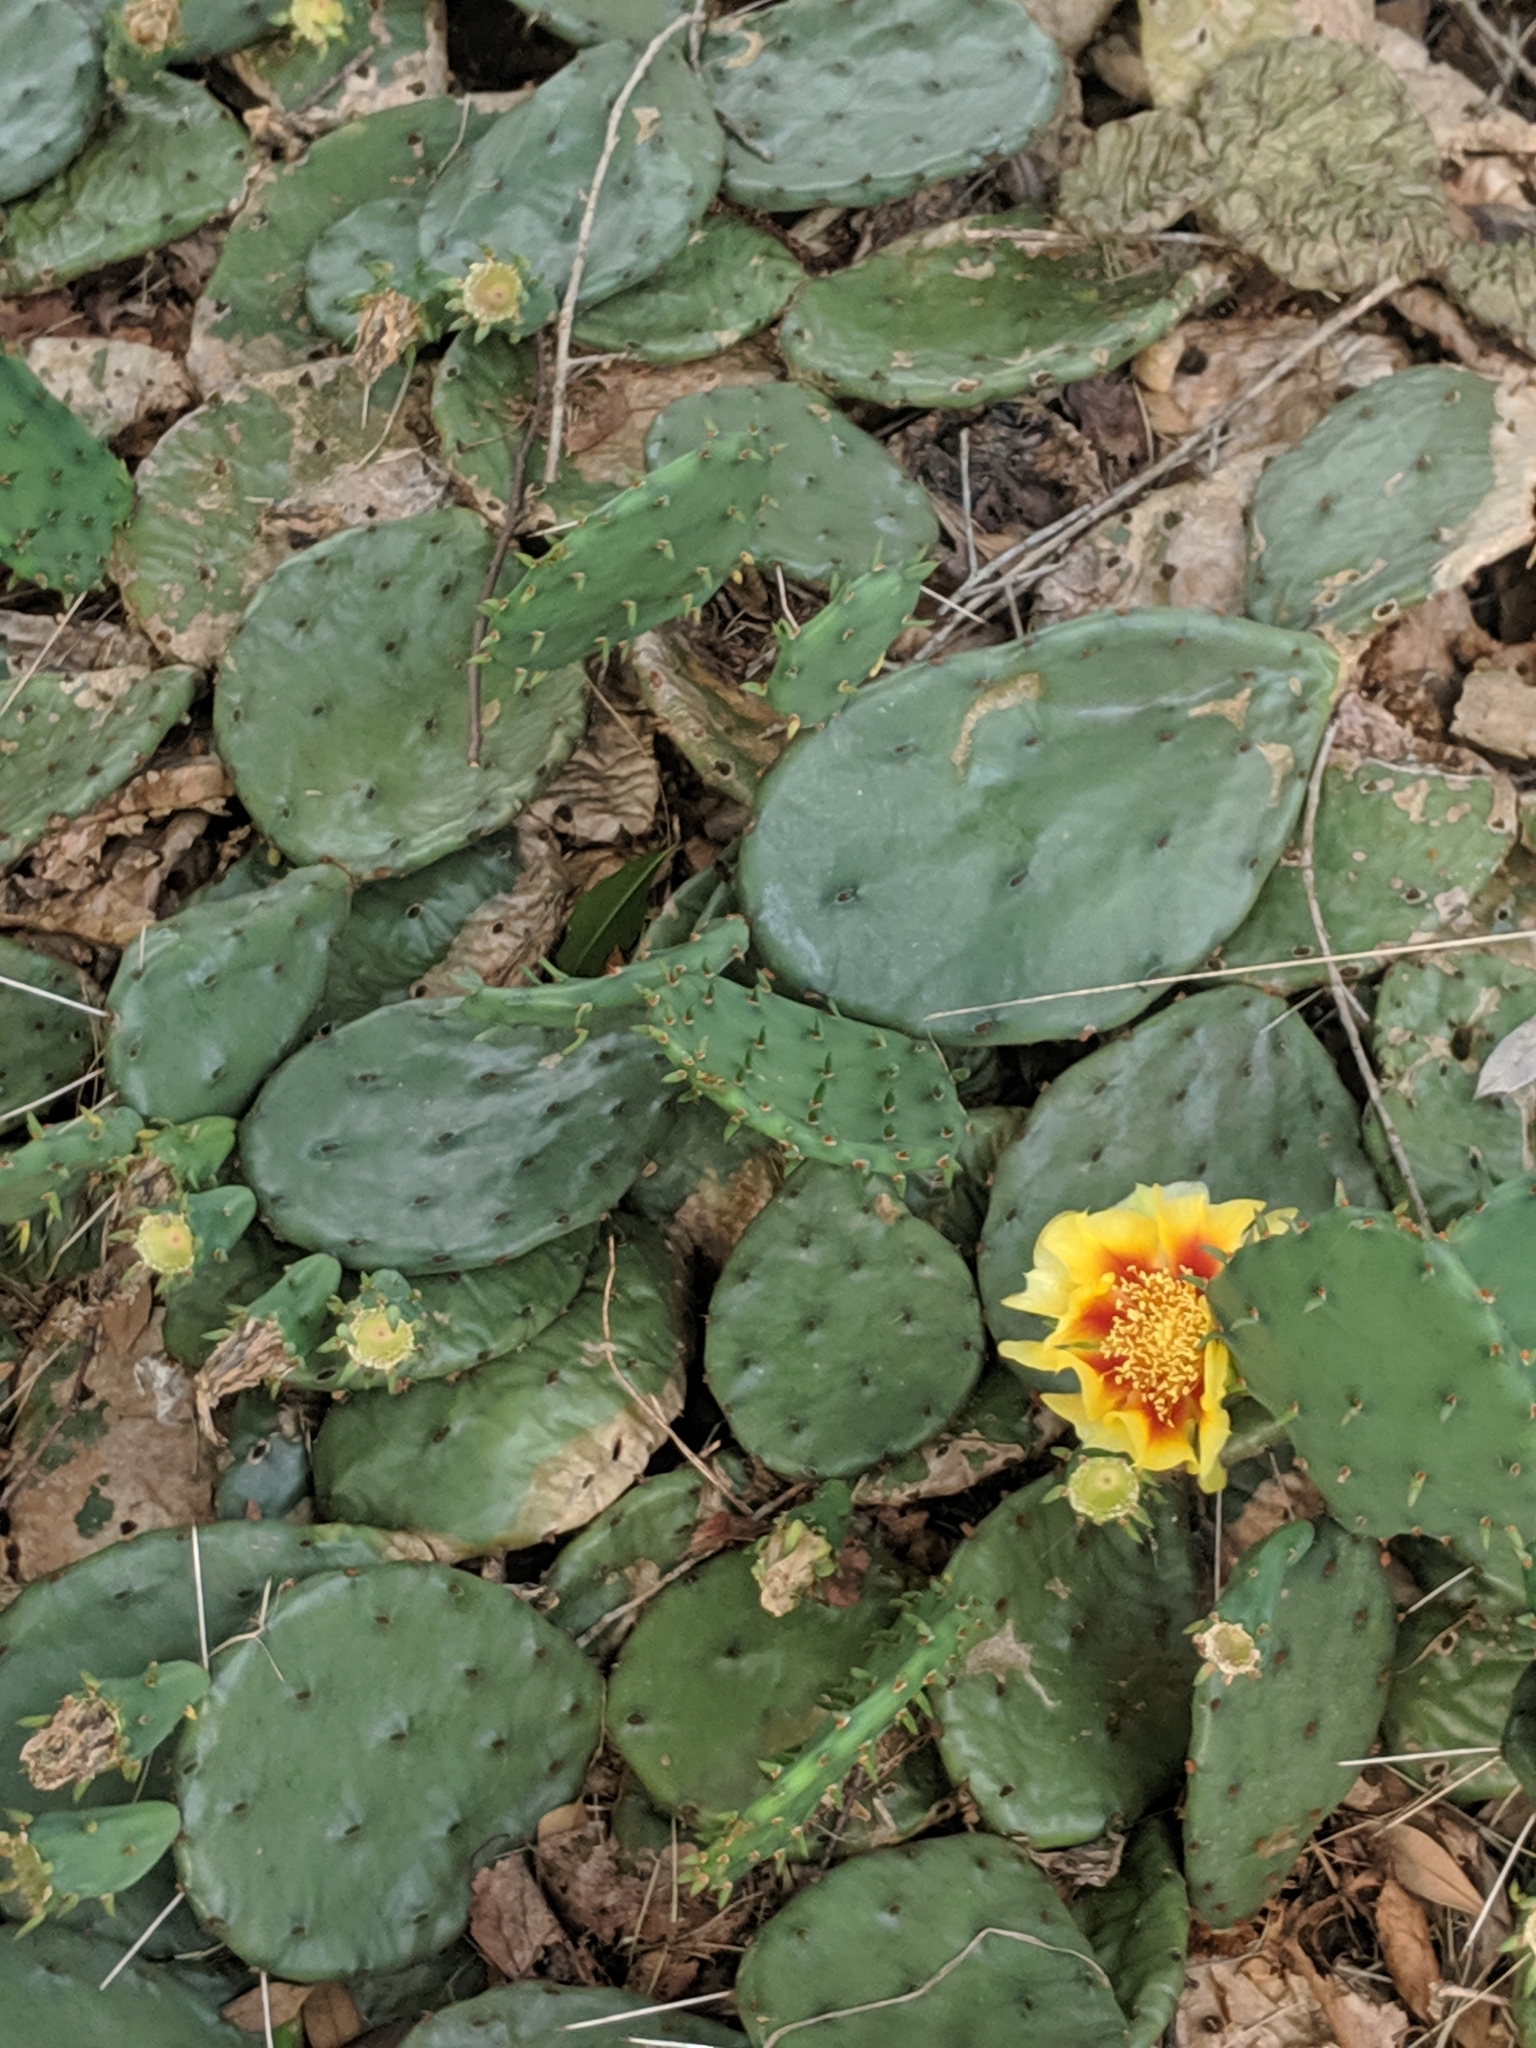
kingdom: Plantae
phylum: Tracheophyta
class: Magnoliopsida
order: Caryophyllales
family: Cactaceae
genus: Opuntia
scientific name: Opuntia humifusa
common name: Eastern prickly-pear
